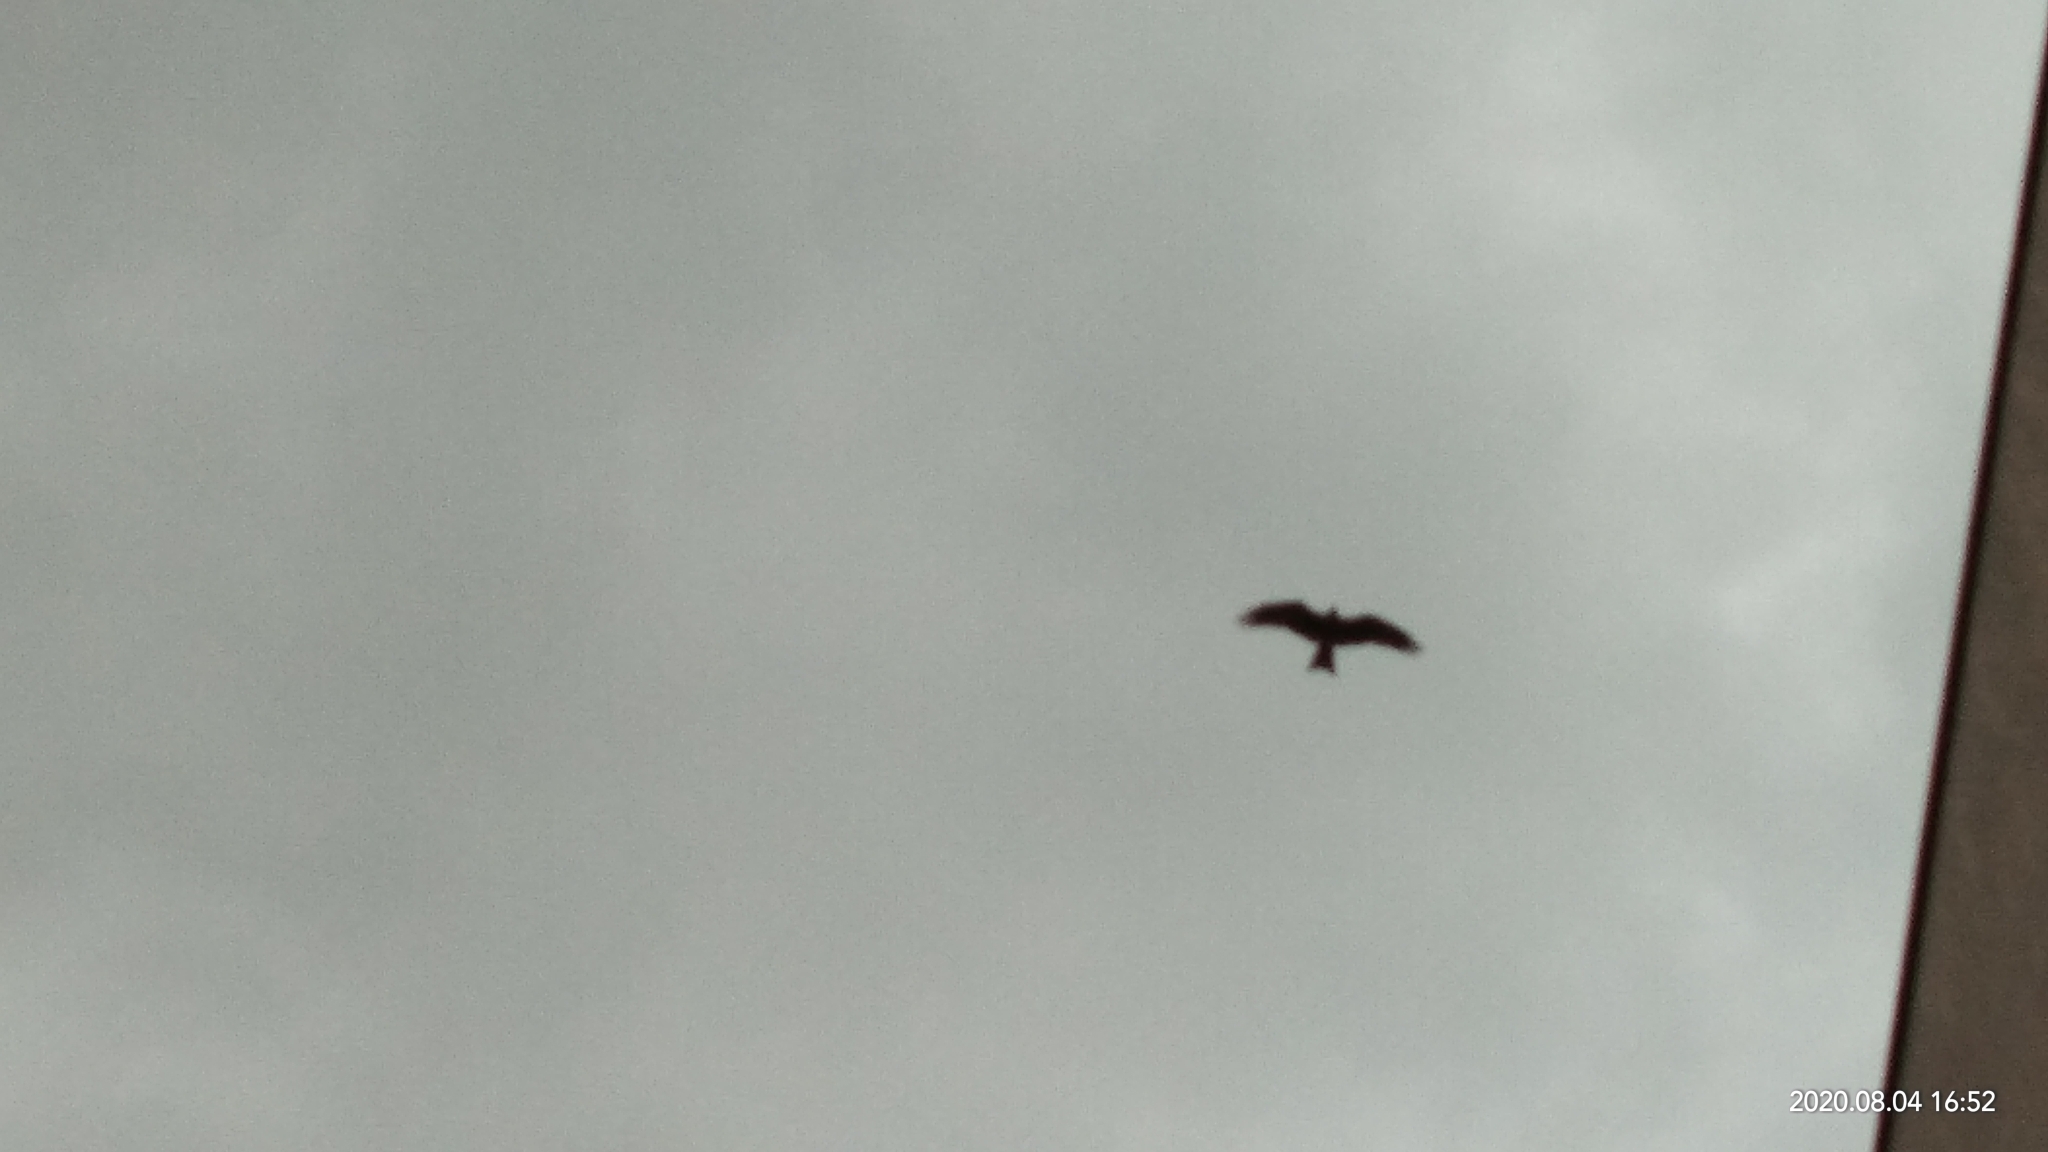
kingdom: Animalia
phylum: Chordata
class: Aves
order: Accipitriformes
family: Accipitridae
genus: Milvus
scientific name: Milvus migrans
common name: Black kite
